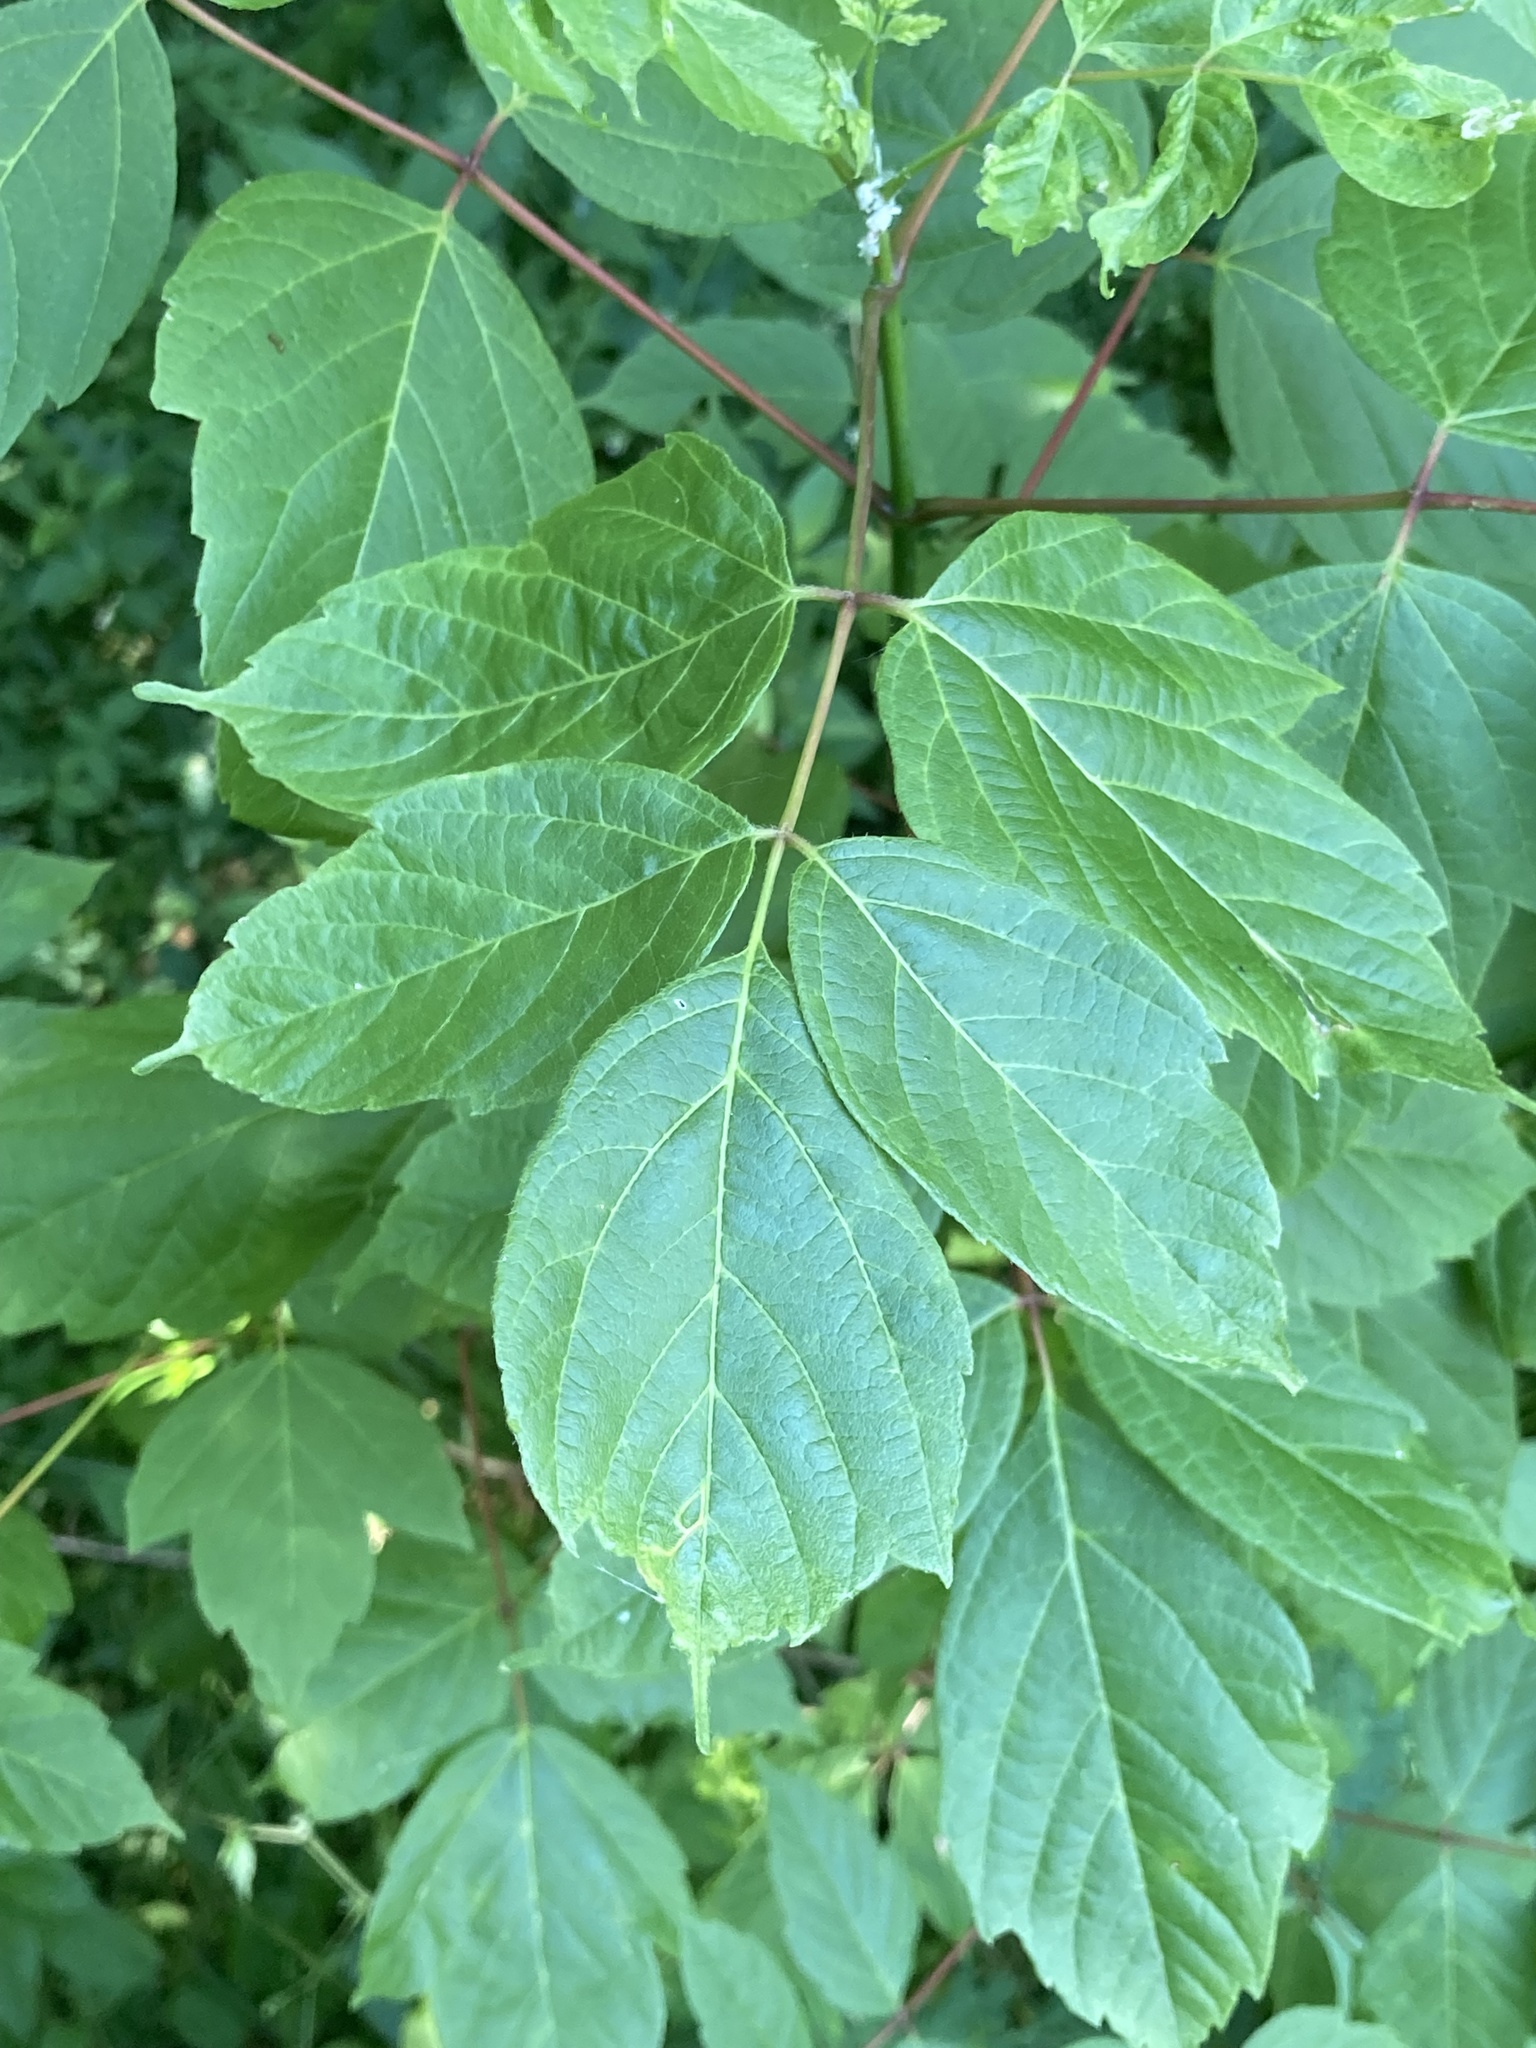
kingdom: Plantae
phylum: Tracheophyta
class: Magnoliopsida
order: Sapindales
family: Sapindaceae
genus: Acer
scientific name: Acer negundo
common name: Ashleaf maple
